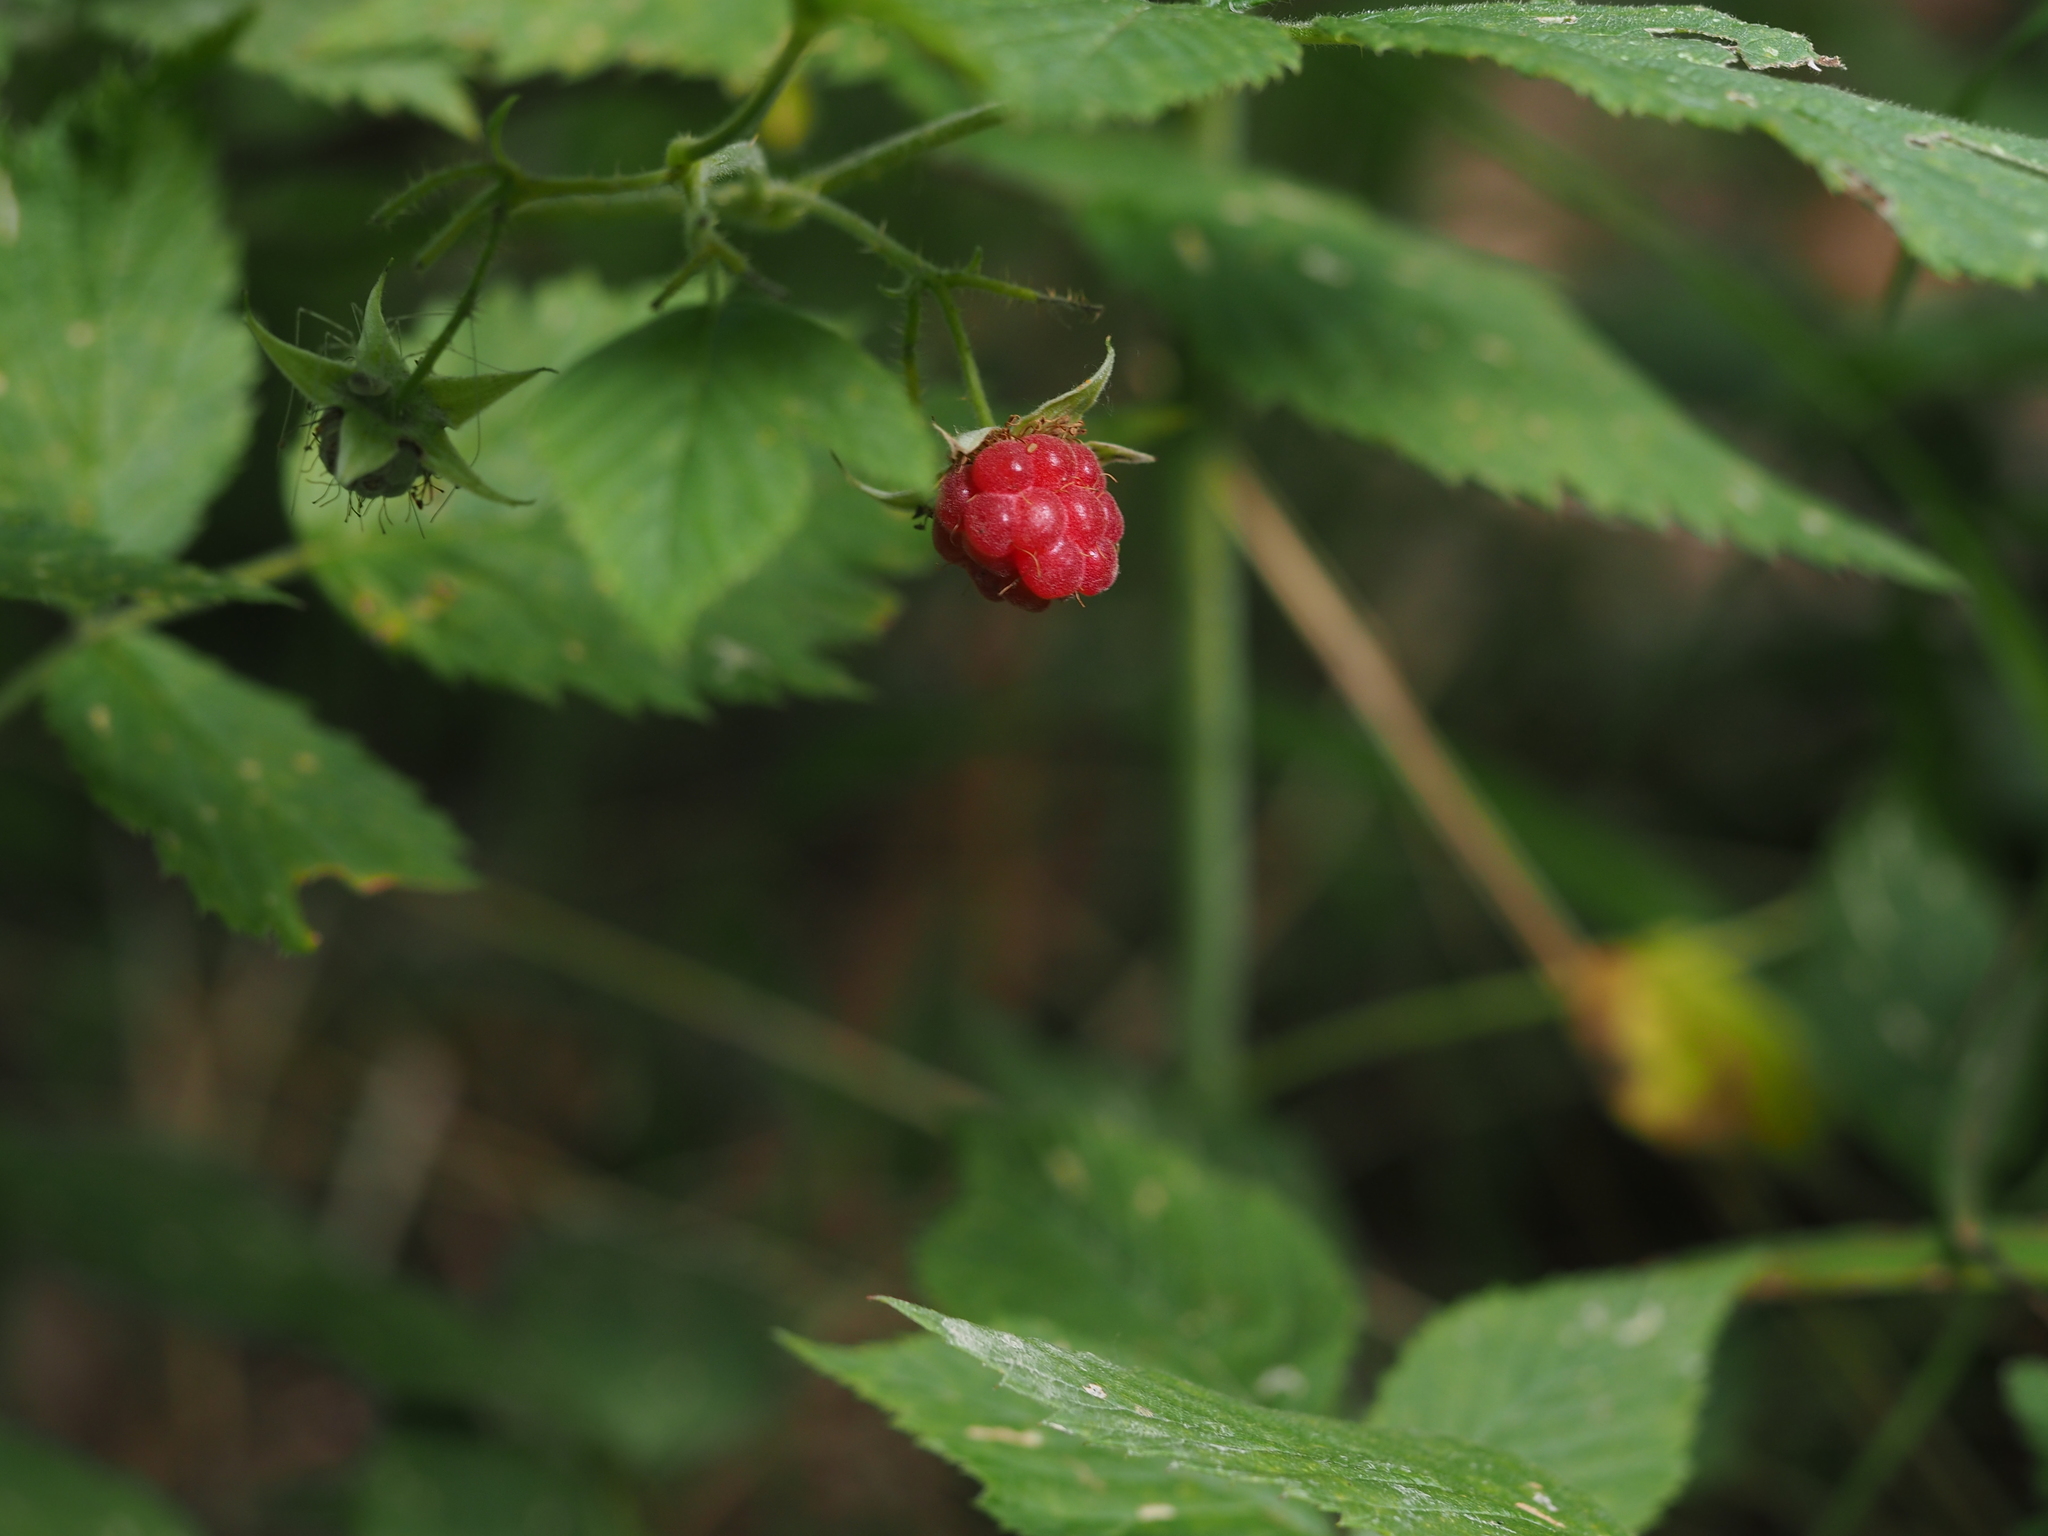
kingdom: Plantae
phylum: Tracheophyta
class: Magnoliopsida
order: Rosales
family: Rosaceae
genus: Rubus
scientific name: Rubus idaeus
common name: Raspberry
